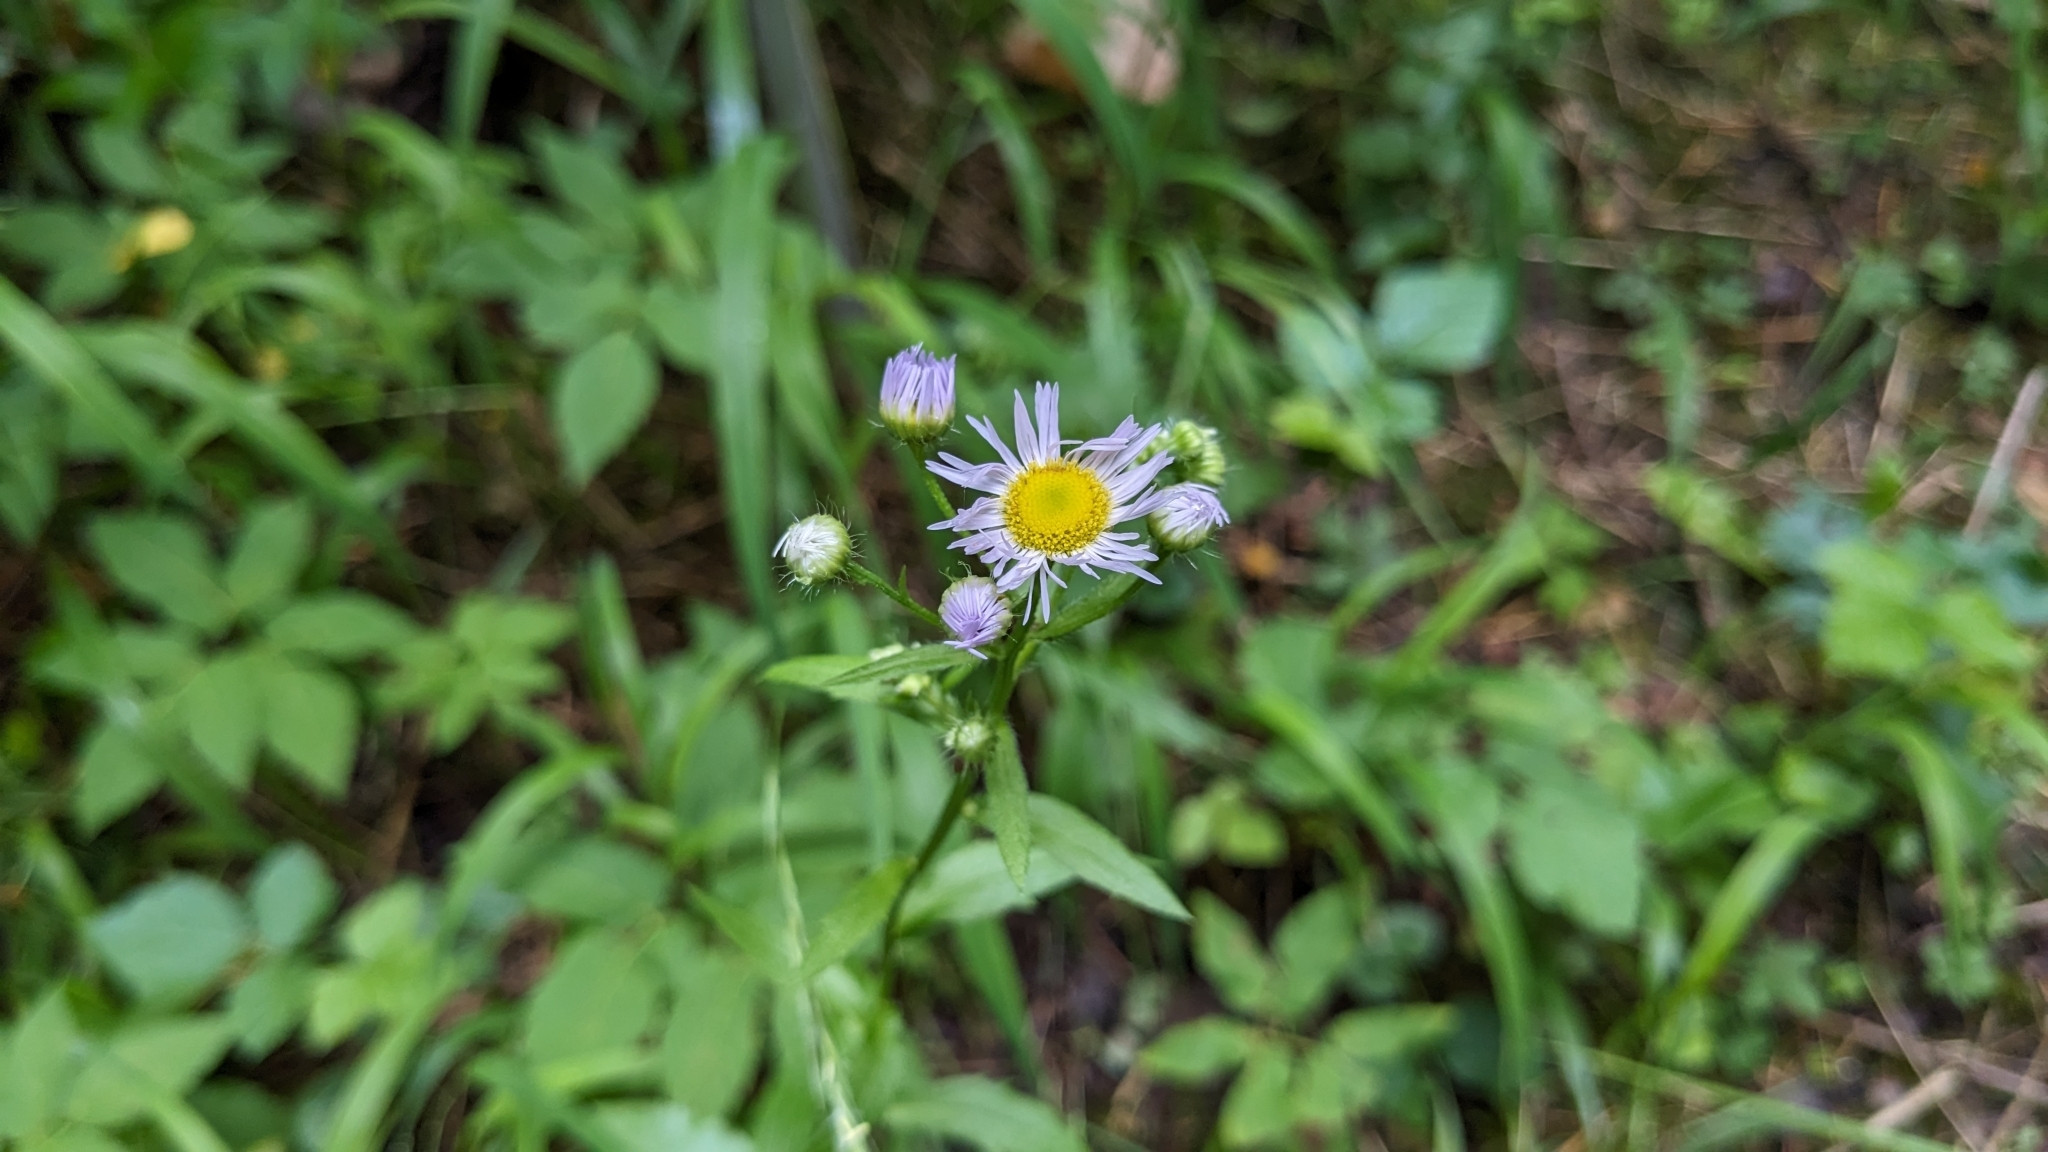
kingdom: Plantae
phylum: Tracheophyta
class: Magnoliopsida
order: Asterales
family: Asteraceae
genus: Erigeron
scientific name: Erigeron annuus
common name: Tall fleabane
